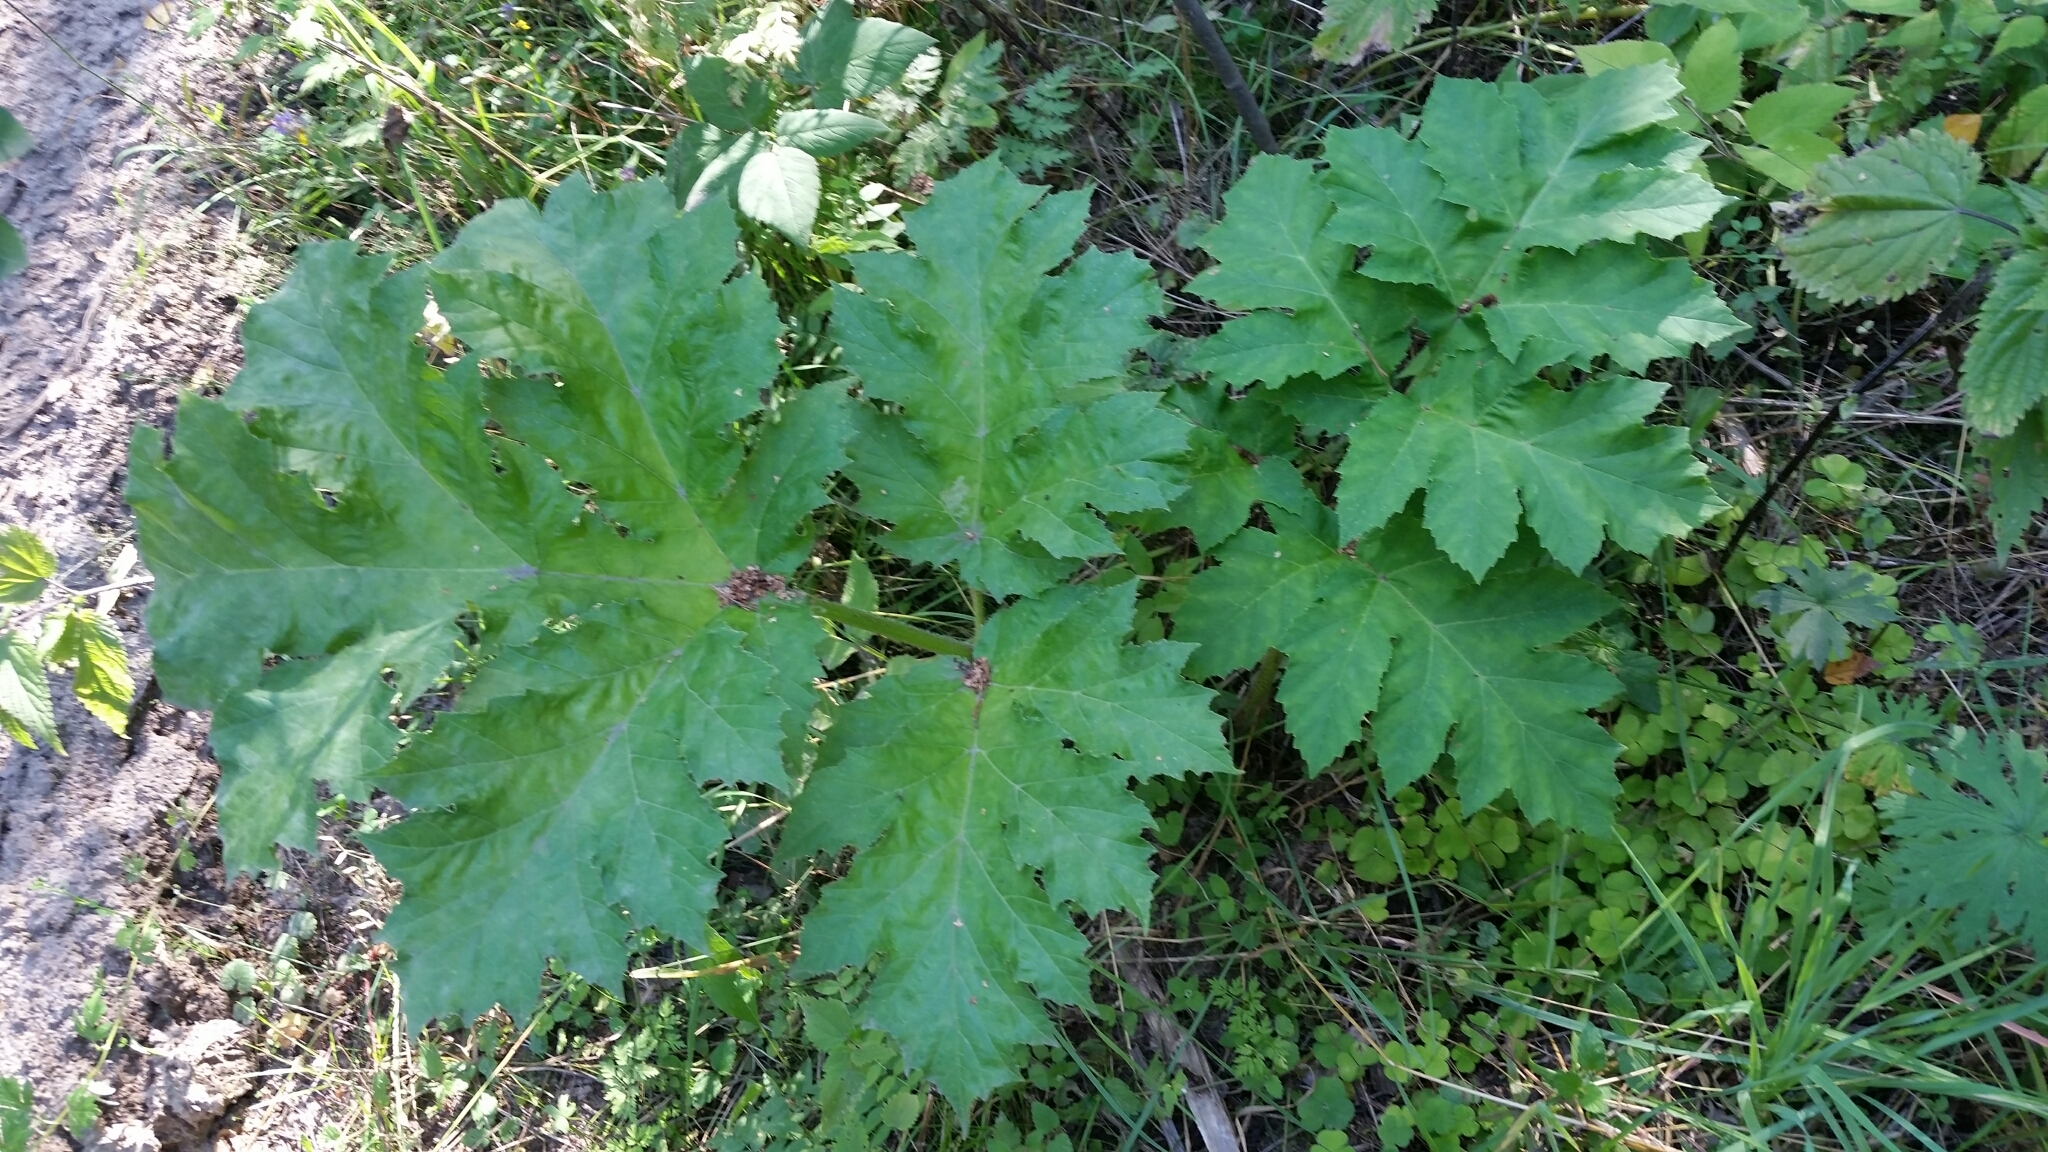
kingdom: Plantae
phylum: Tracheophyta
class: Magnoliopsida
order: Apiales
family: Apiaceae
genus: Heracleum
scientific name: Heracleum sosnowskyi
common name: Sosnowsky's hogweed
